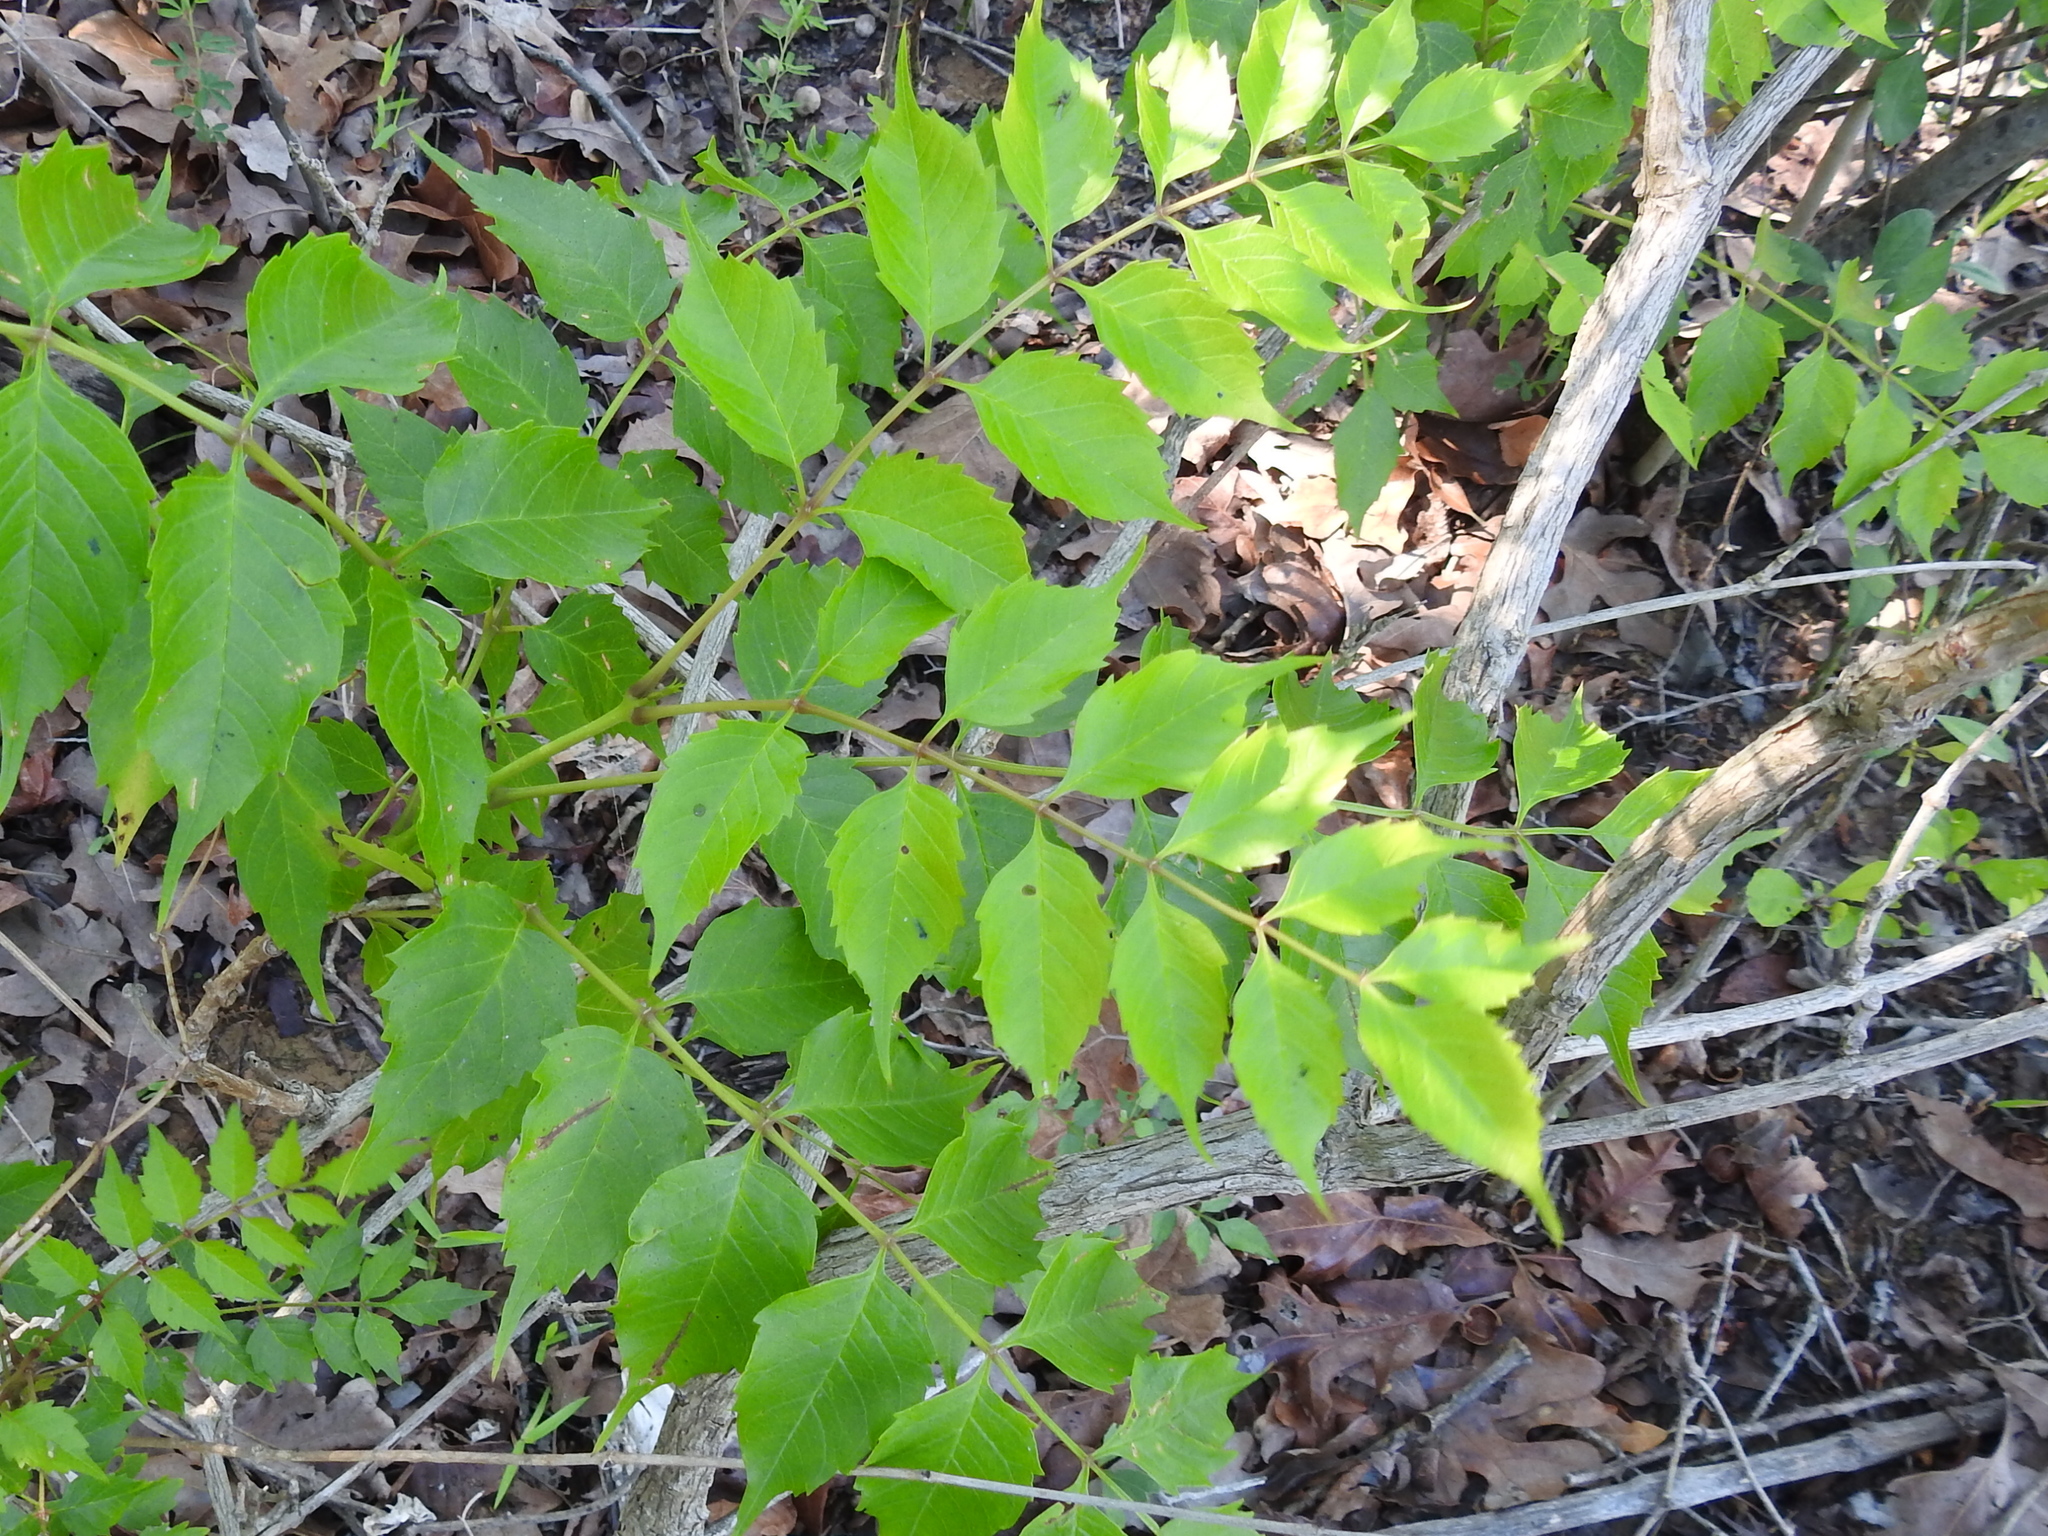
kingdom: Plantae
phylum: Tracheophyta
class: Magnoliopsida
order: Lamiales
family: Bignoniaceae
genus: Campsis
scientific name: Campsis radicans
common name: Trumpet-creeper
